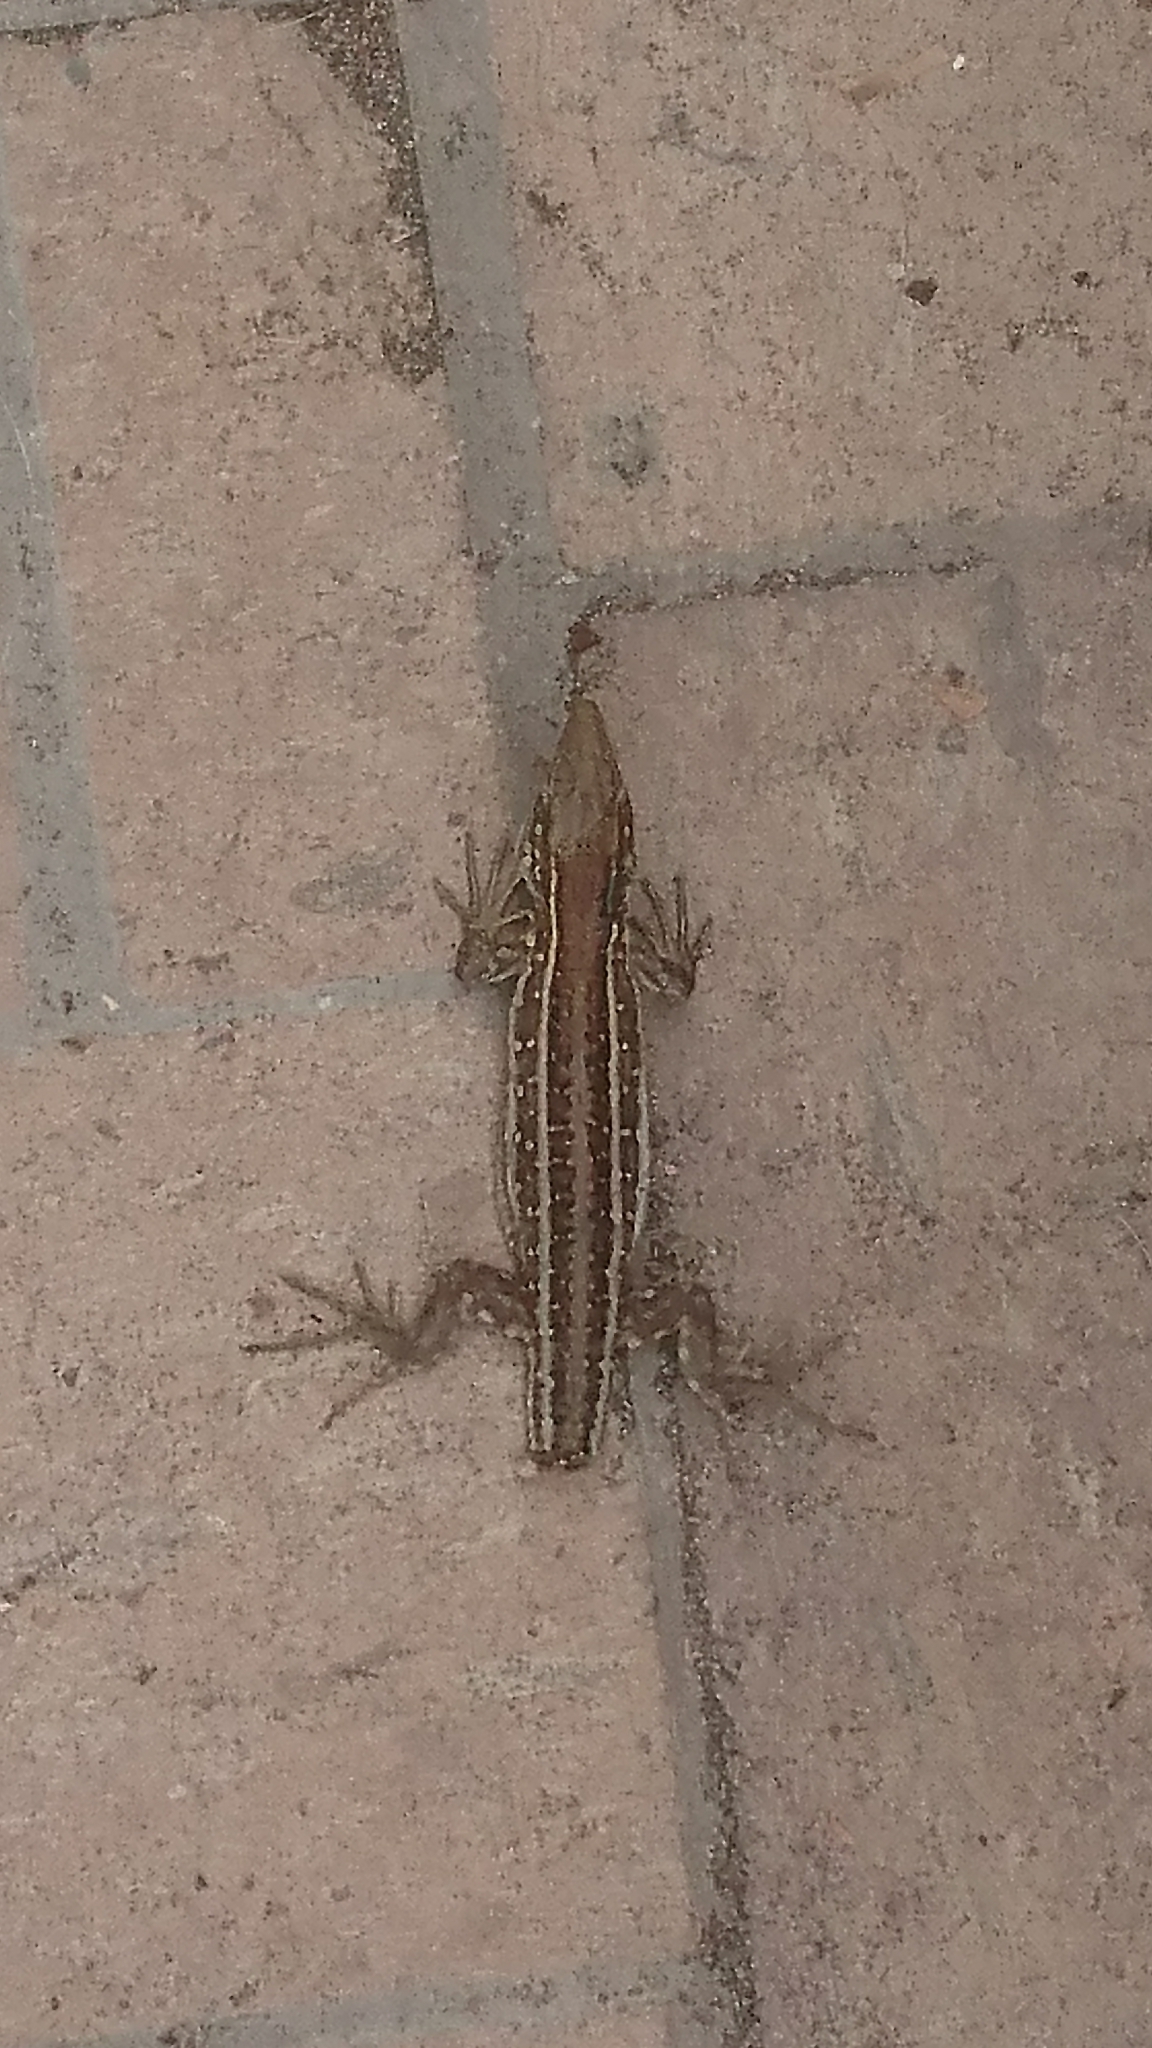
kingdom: Animalia
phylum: Chordata
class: Squamata
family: Lacertidae
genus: Gallotia
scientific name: Gallotia galloti
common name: Gallot's lizard
